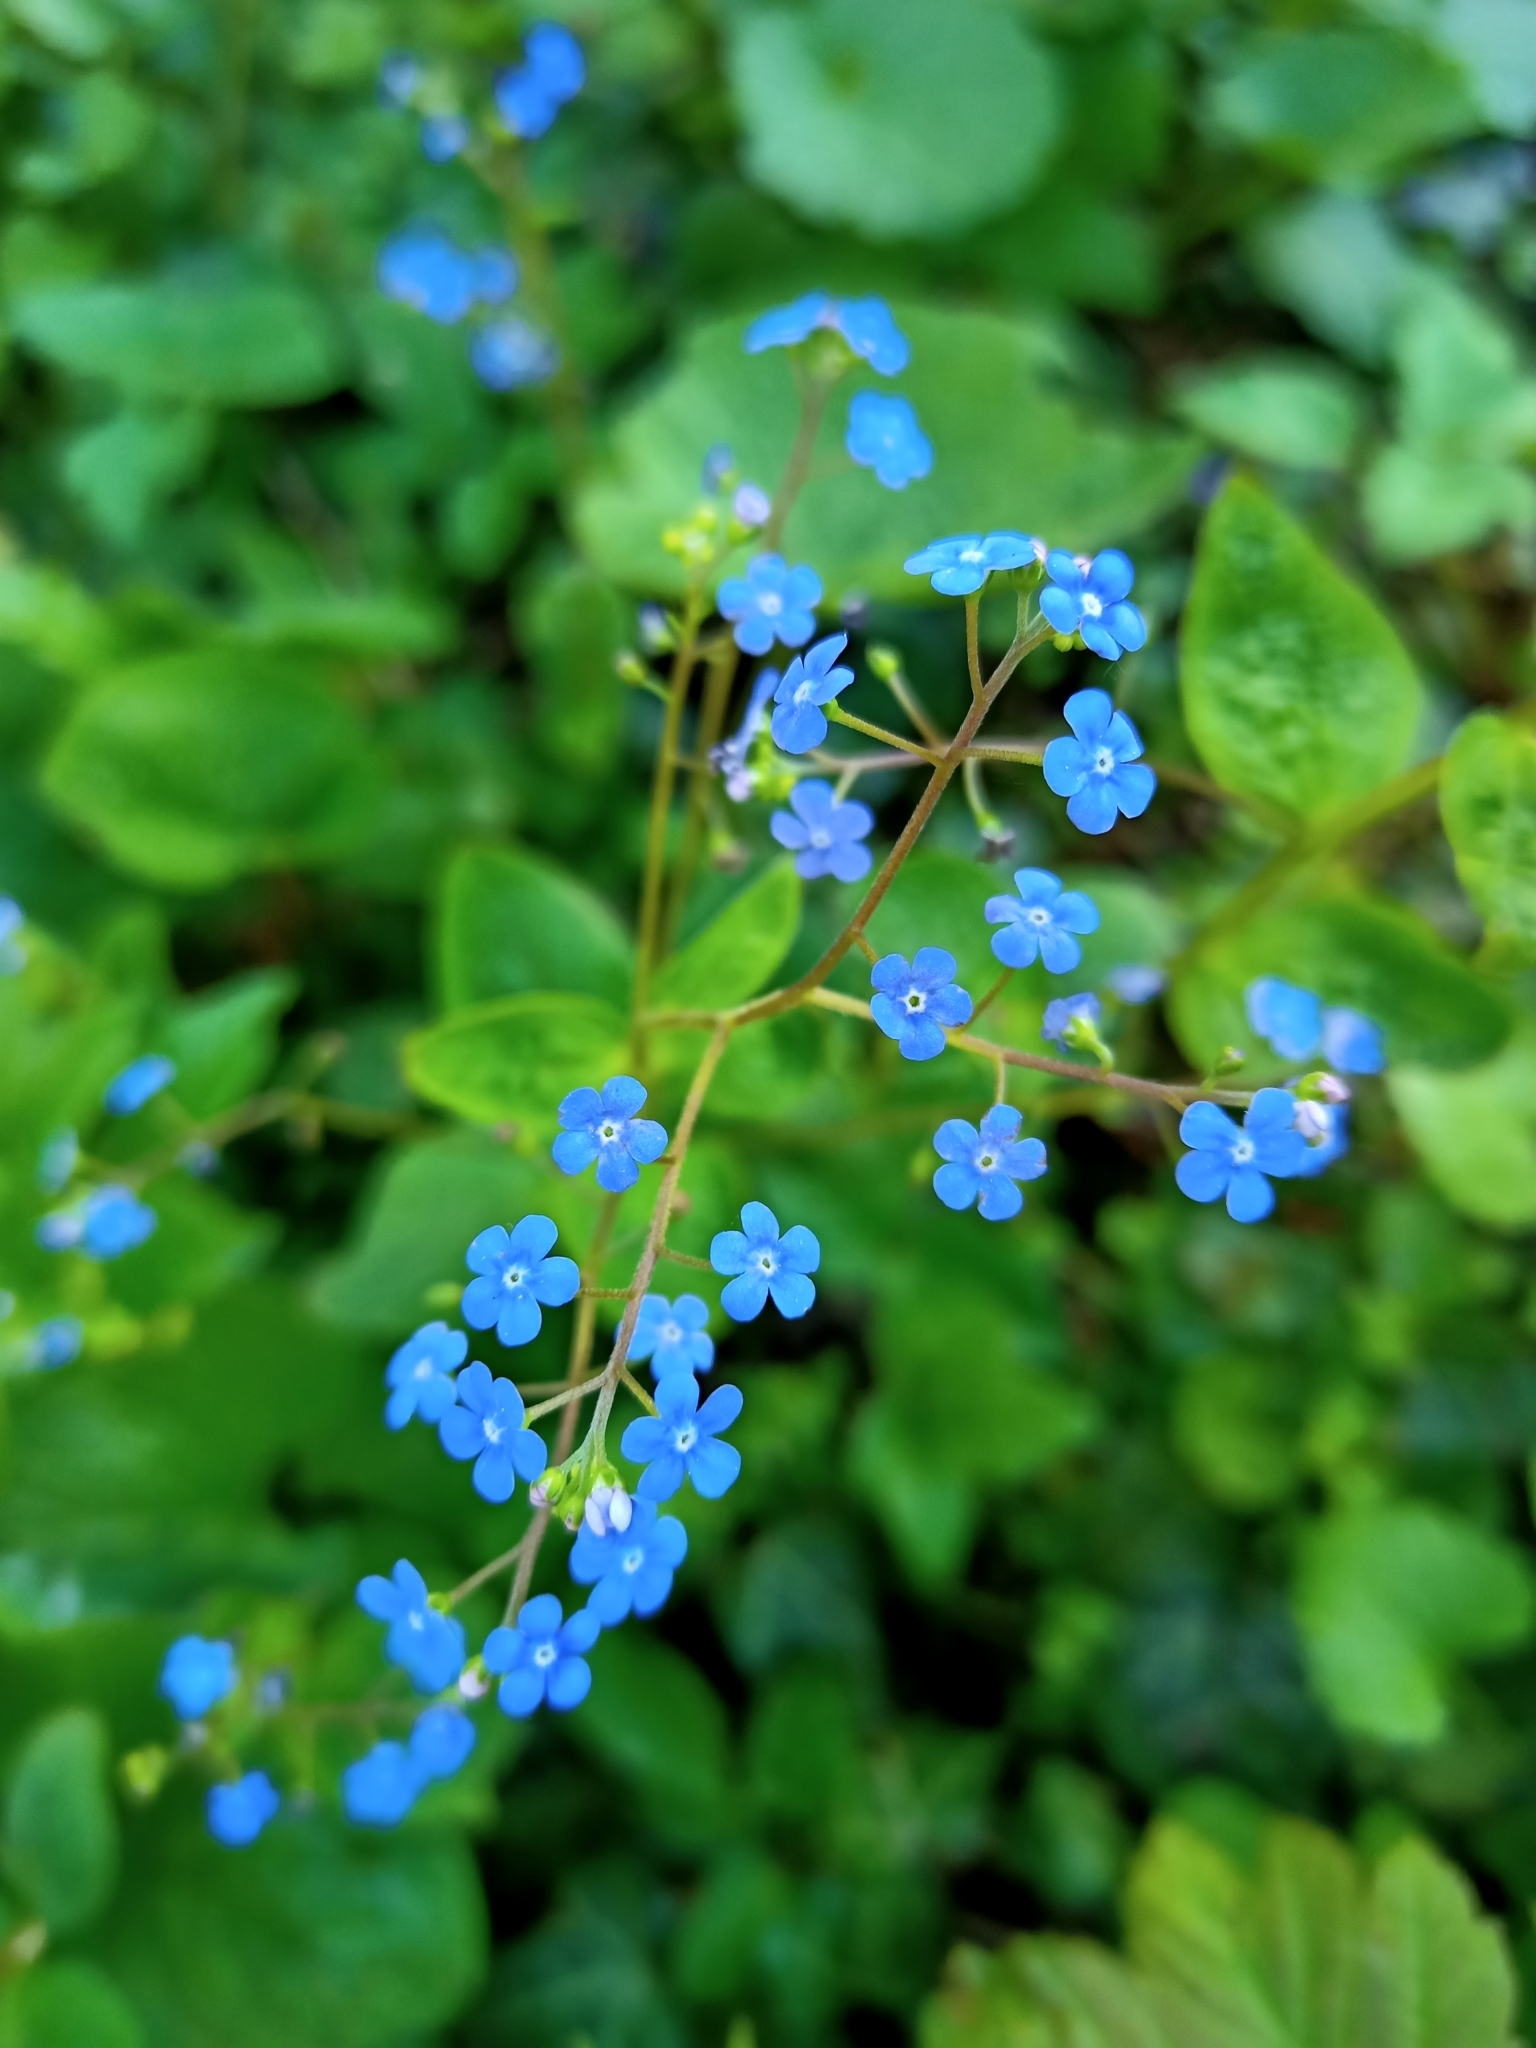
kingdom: Plantae
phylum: Tracheophyta
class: Magnoliopsida
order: Boraginales
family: Boraginaceae
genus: Brunnera
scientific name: Brunnera macrophylla
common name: Great forget-me-not
